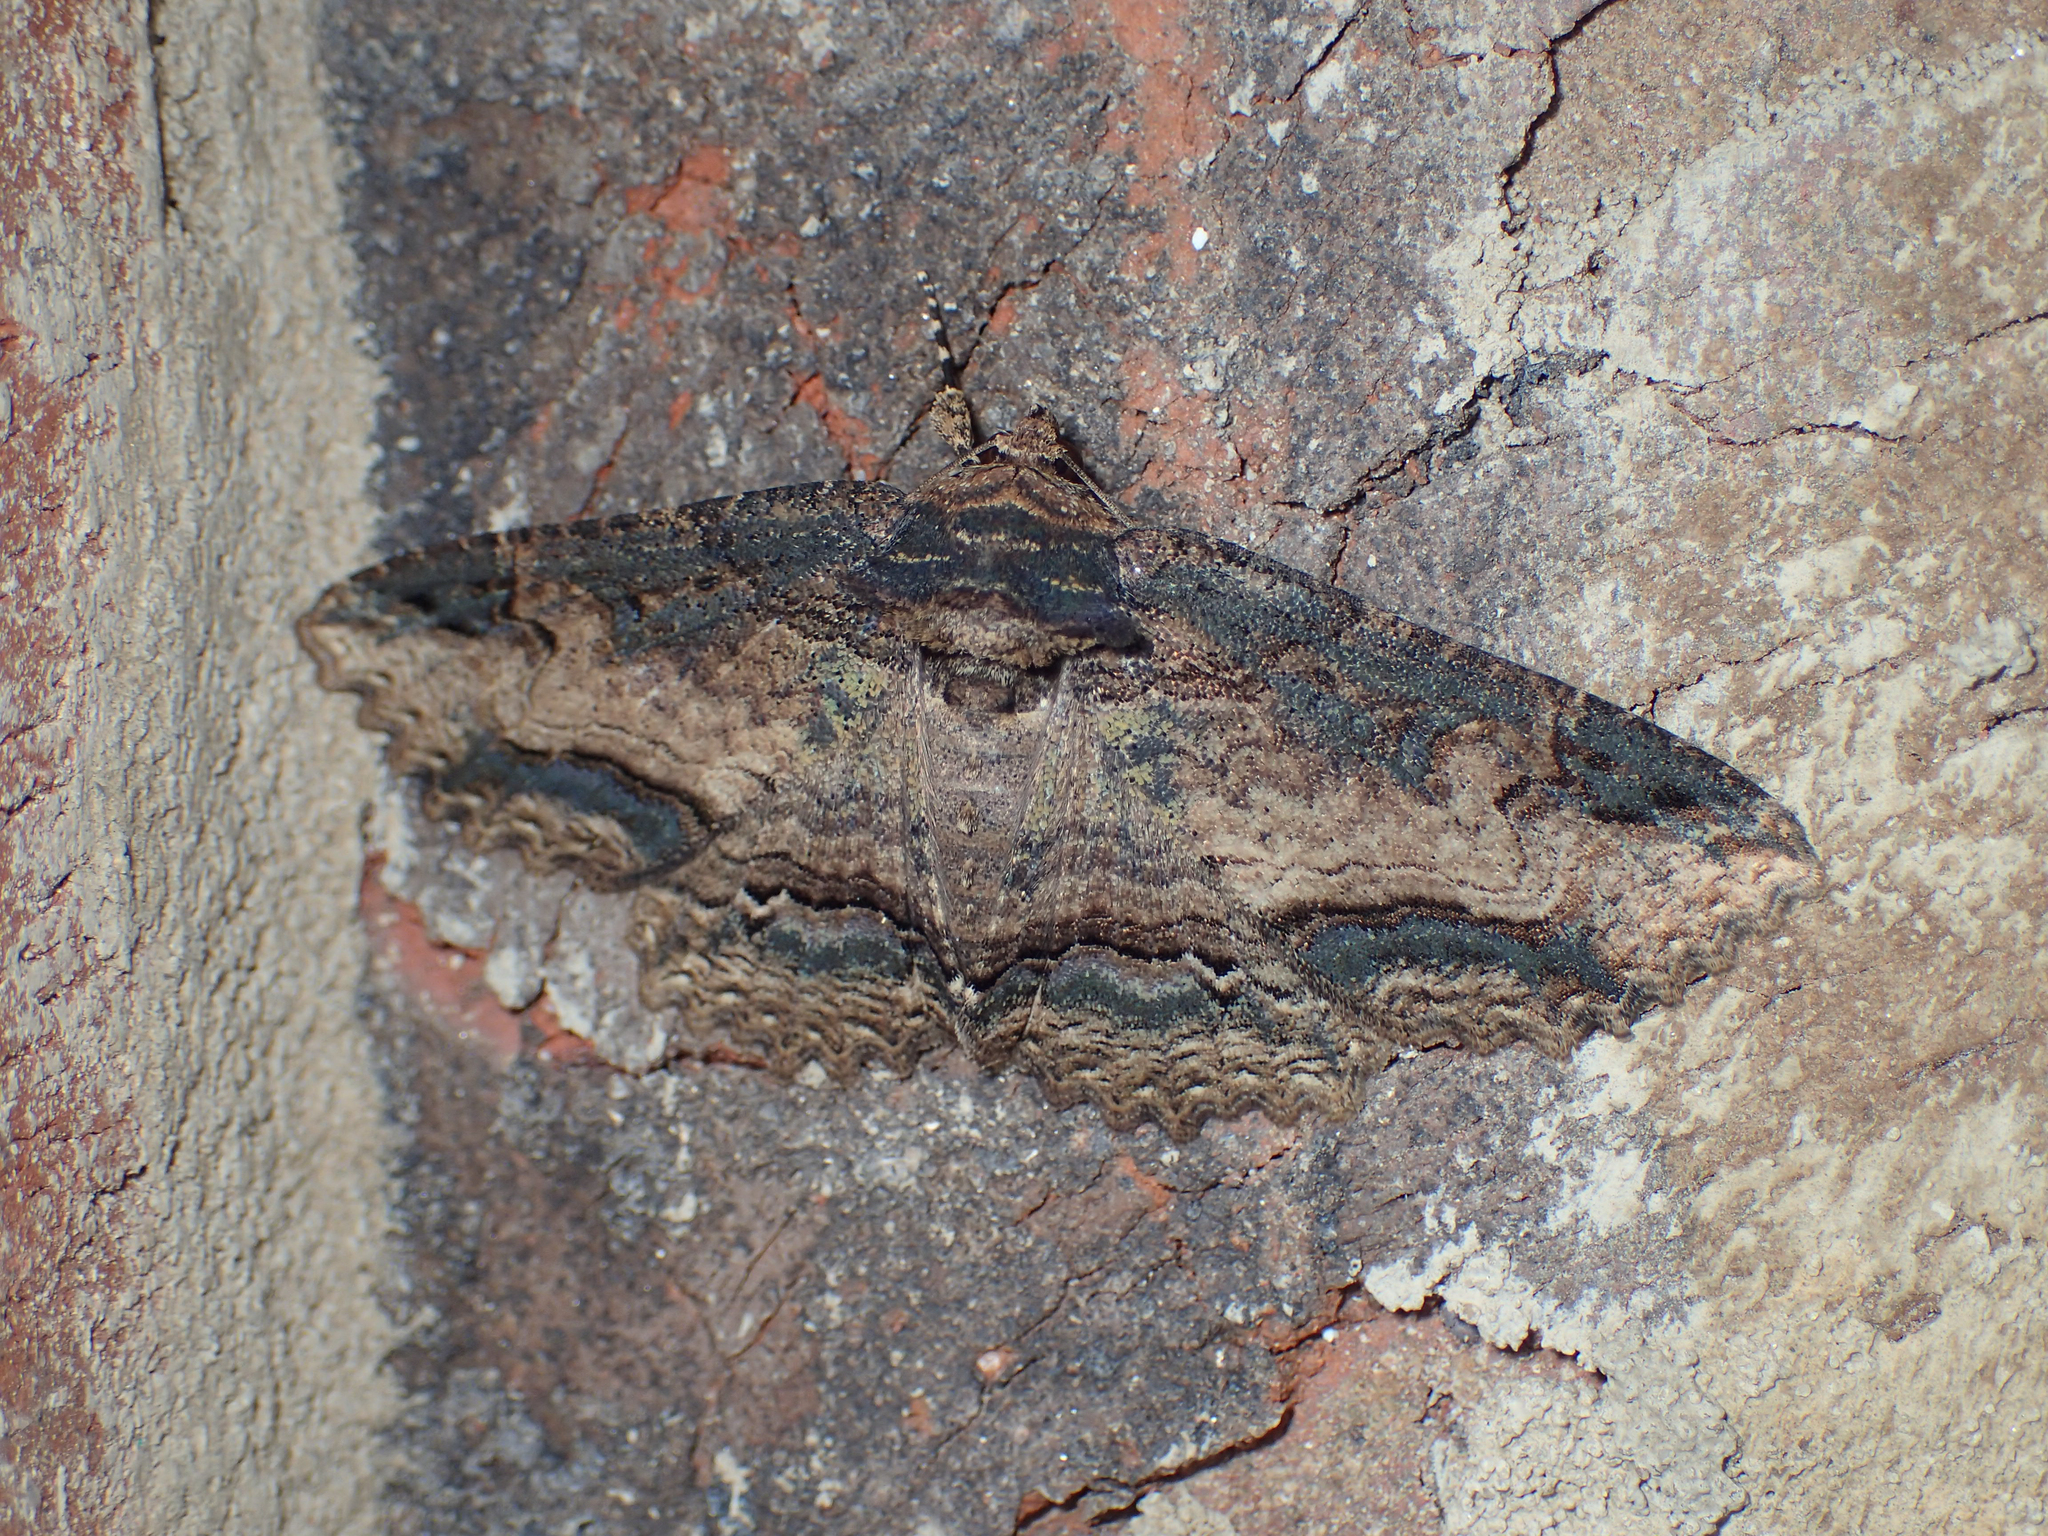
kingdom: Animalia
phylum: Arthropoda
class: Insecta
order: Lepidoptera
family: Erebidae
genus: Zale
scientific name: Zale minerea
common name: Colorful zale moth
